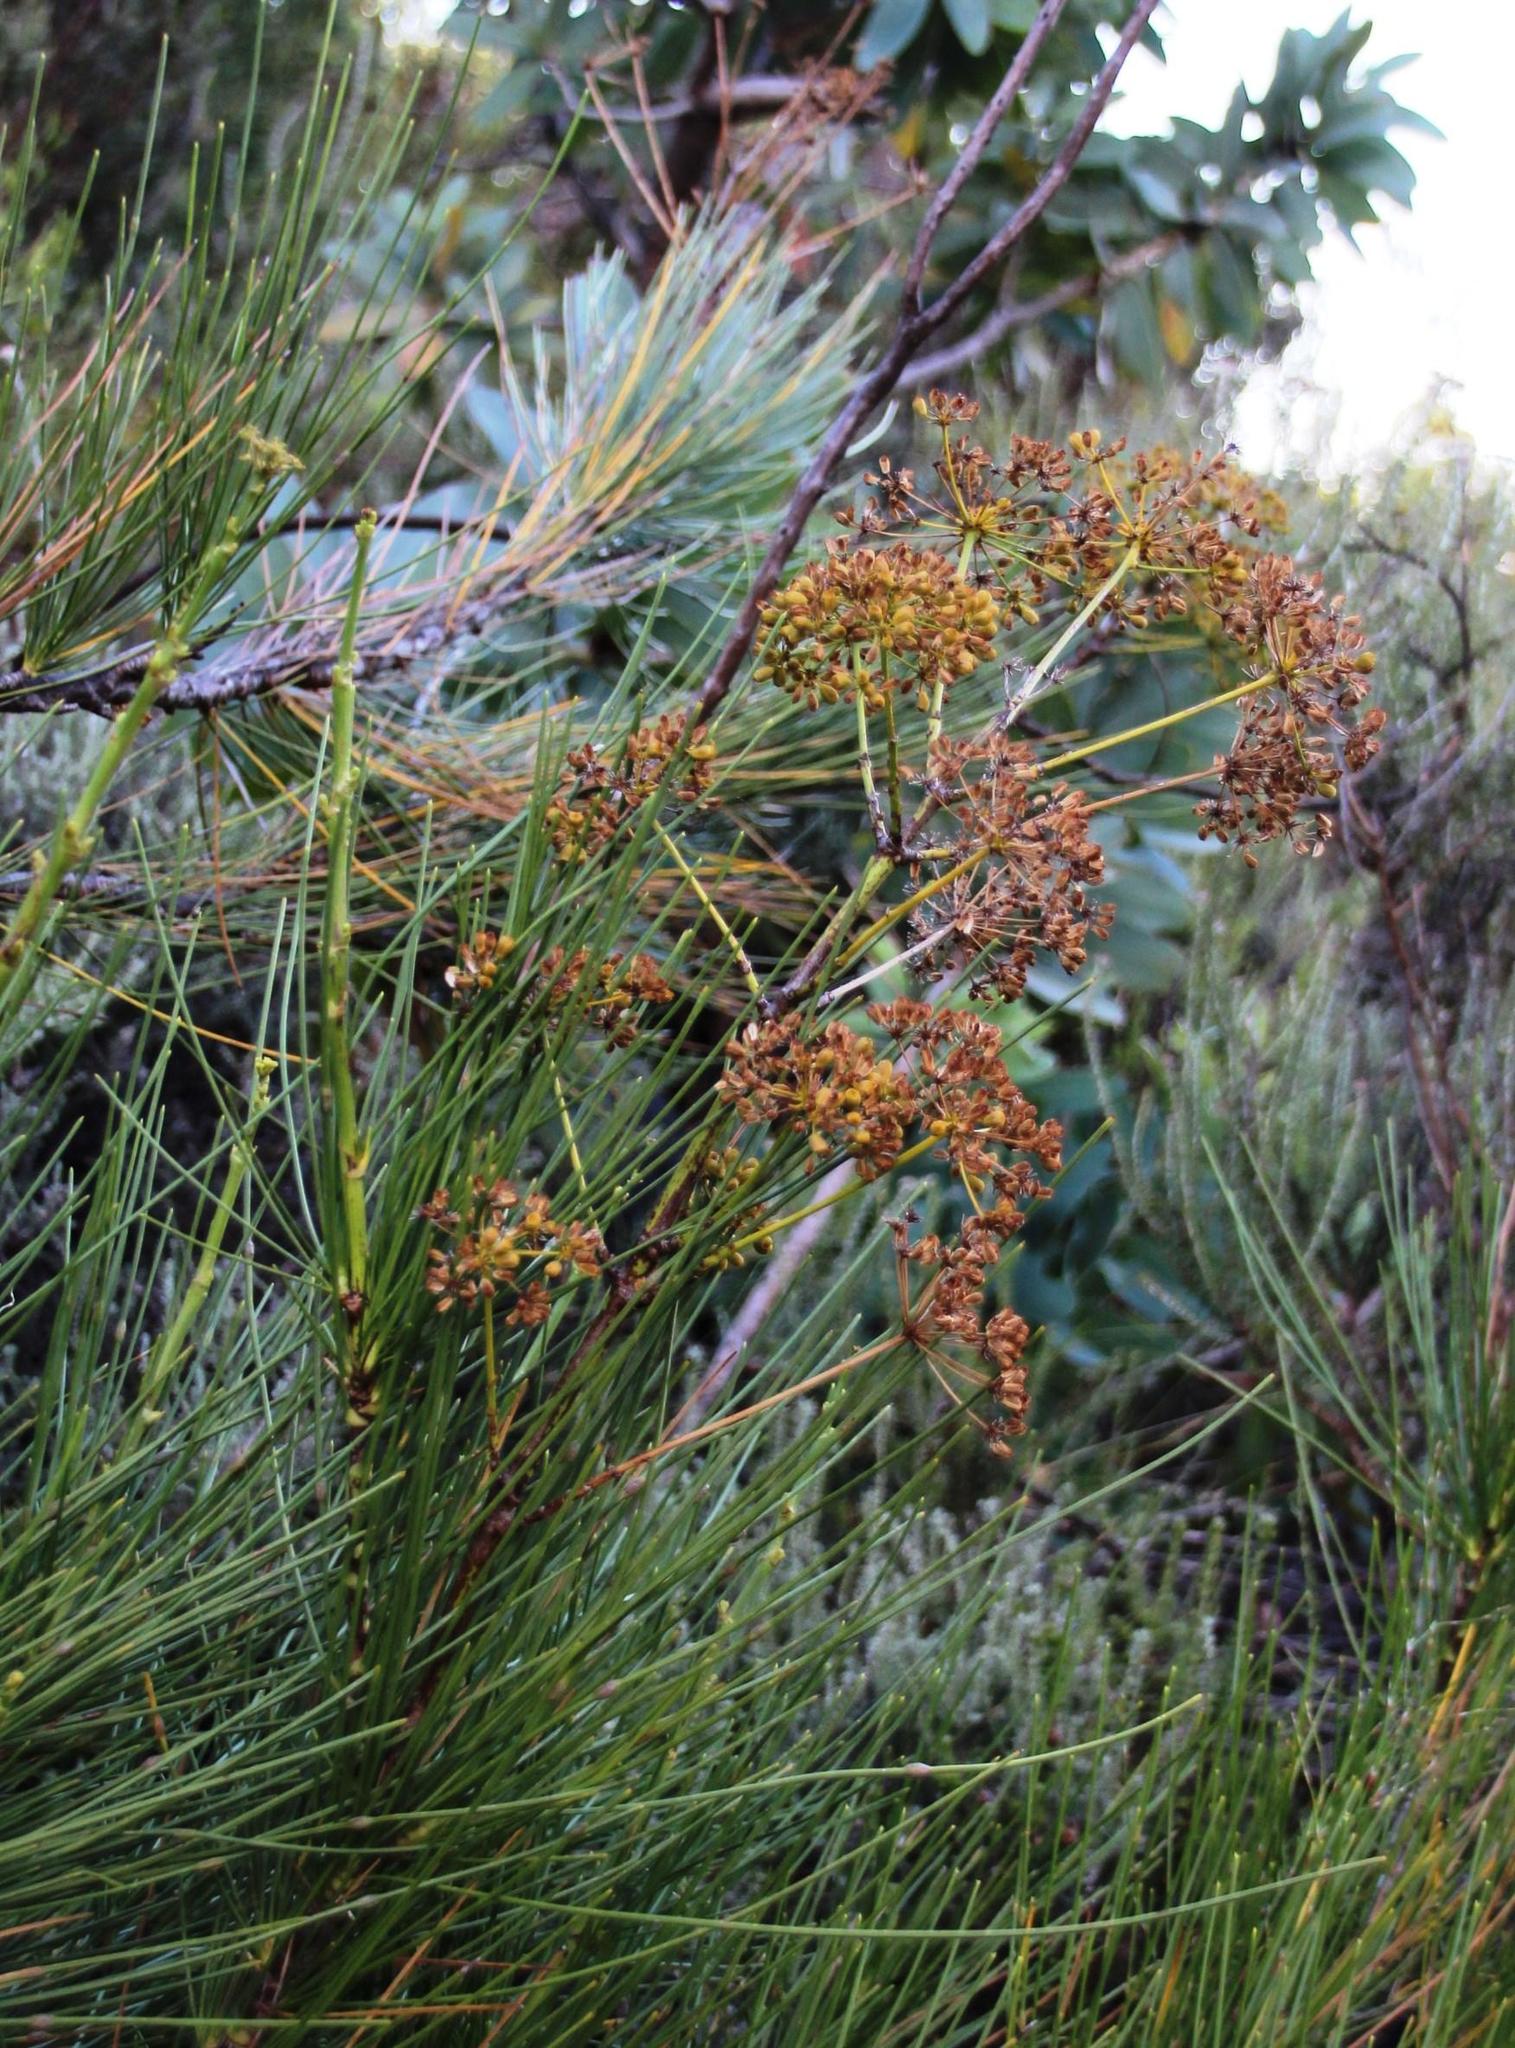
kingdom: Plantae
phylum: Tracheophyta
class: Magnoliopsida
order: Apiales
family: Apiaceae
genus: Anginon
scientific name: Anginon difforme
